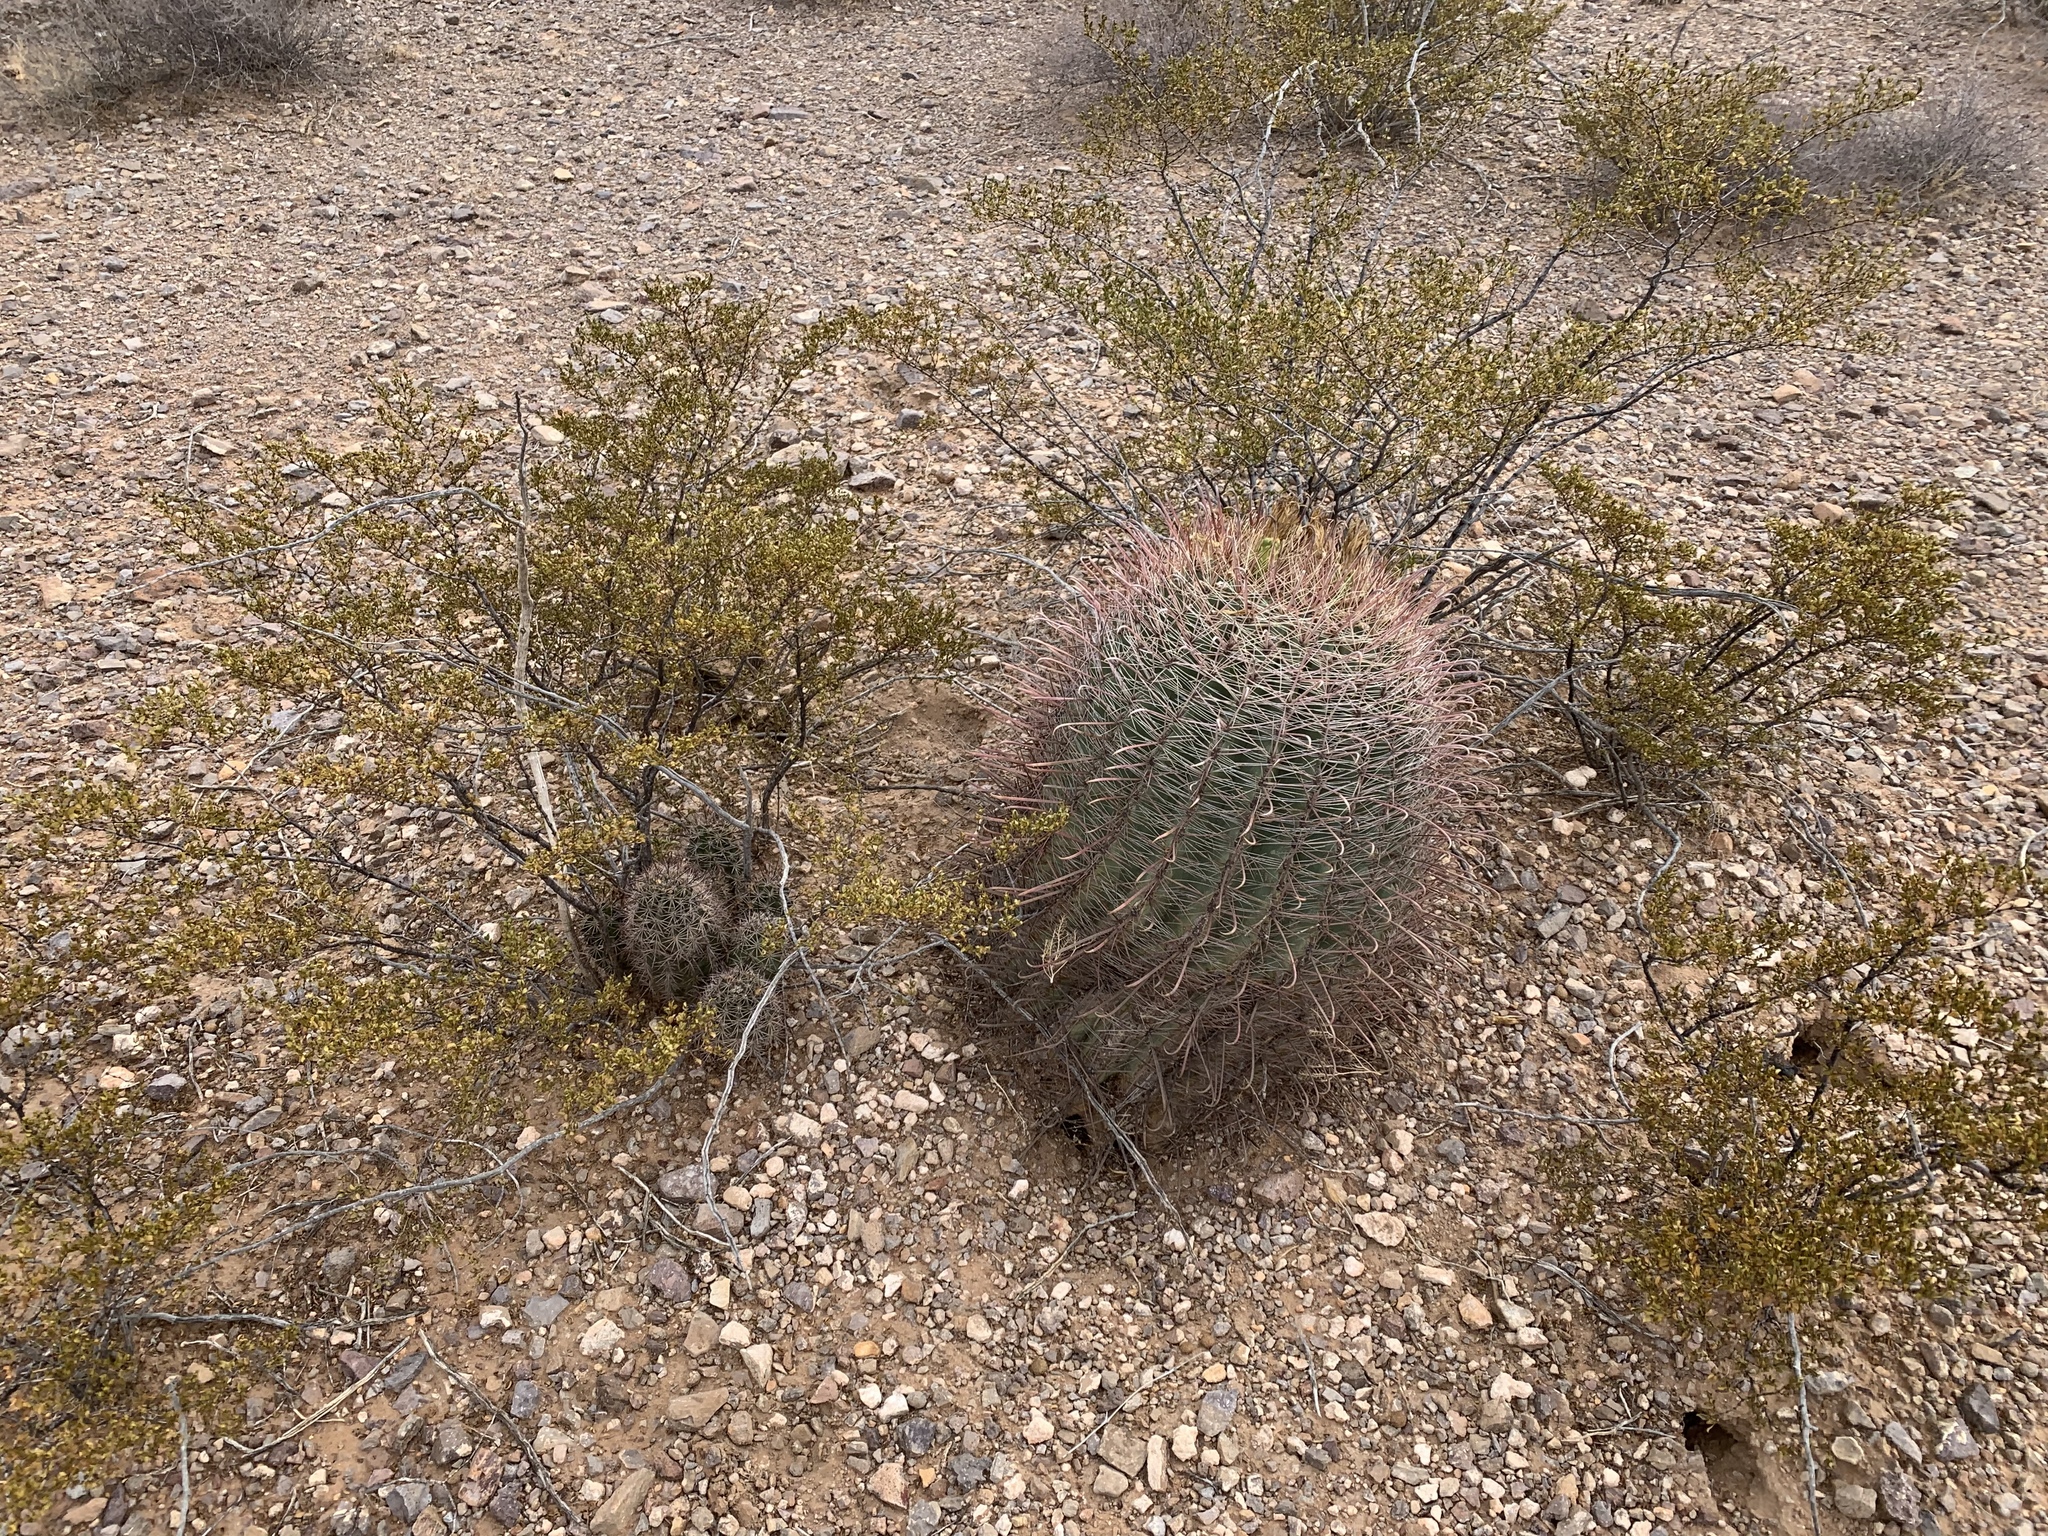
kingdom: Plantae
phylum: Tracheophyta
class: Magnoliopsida
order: Caryophyllales
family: Cactaceae
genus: Echinocereus
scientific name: Echinocereus coccineus
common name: Scarlet hedgehog cactus
